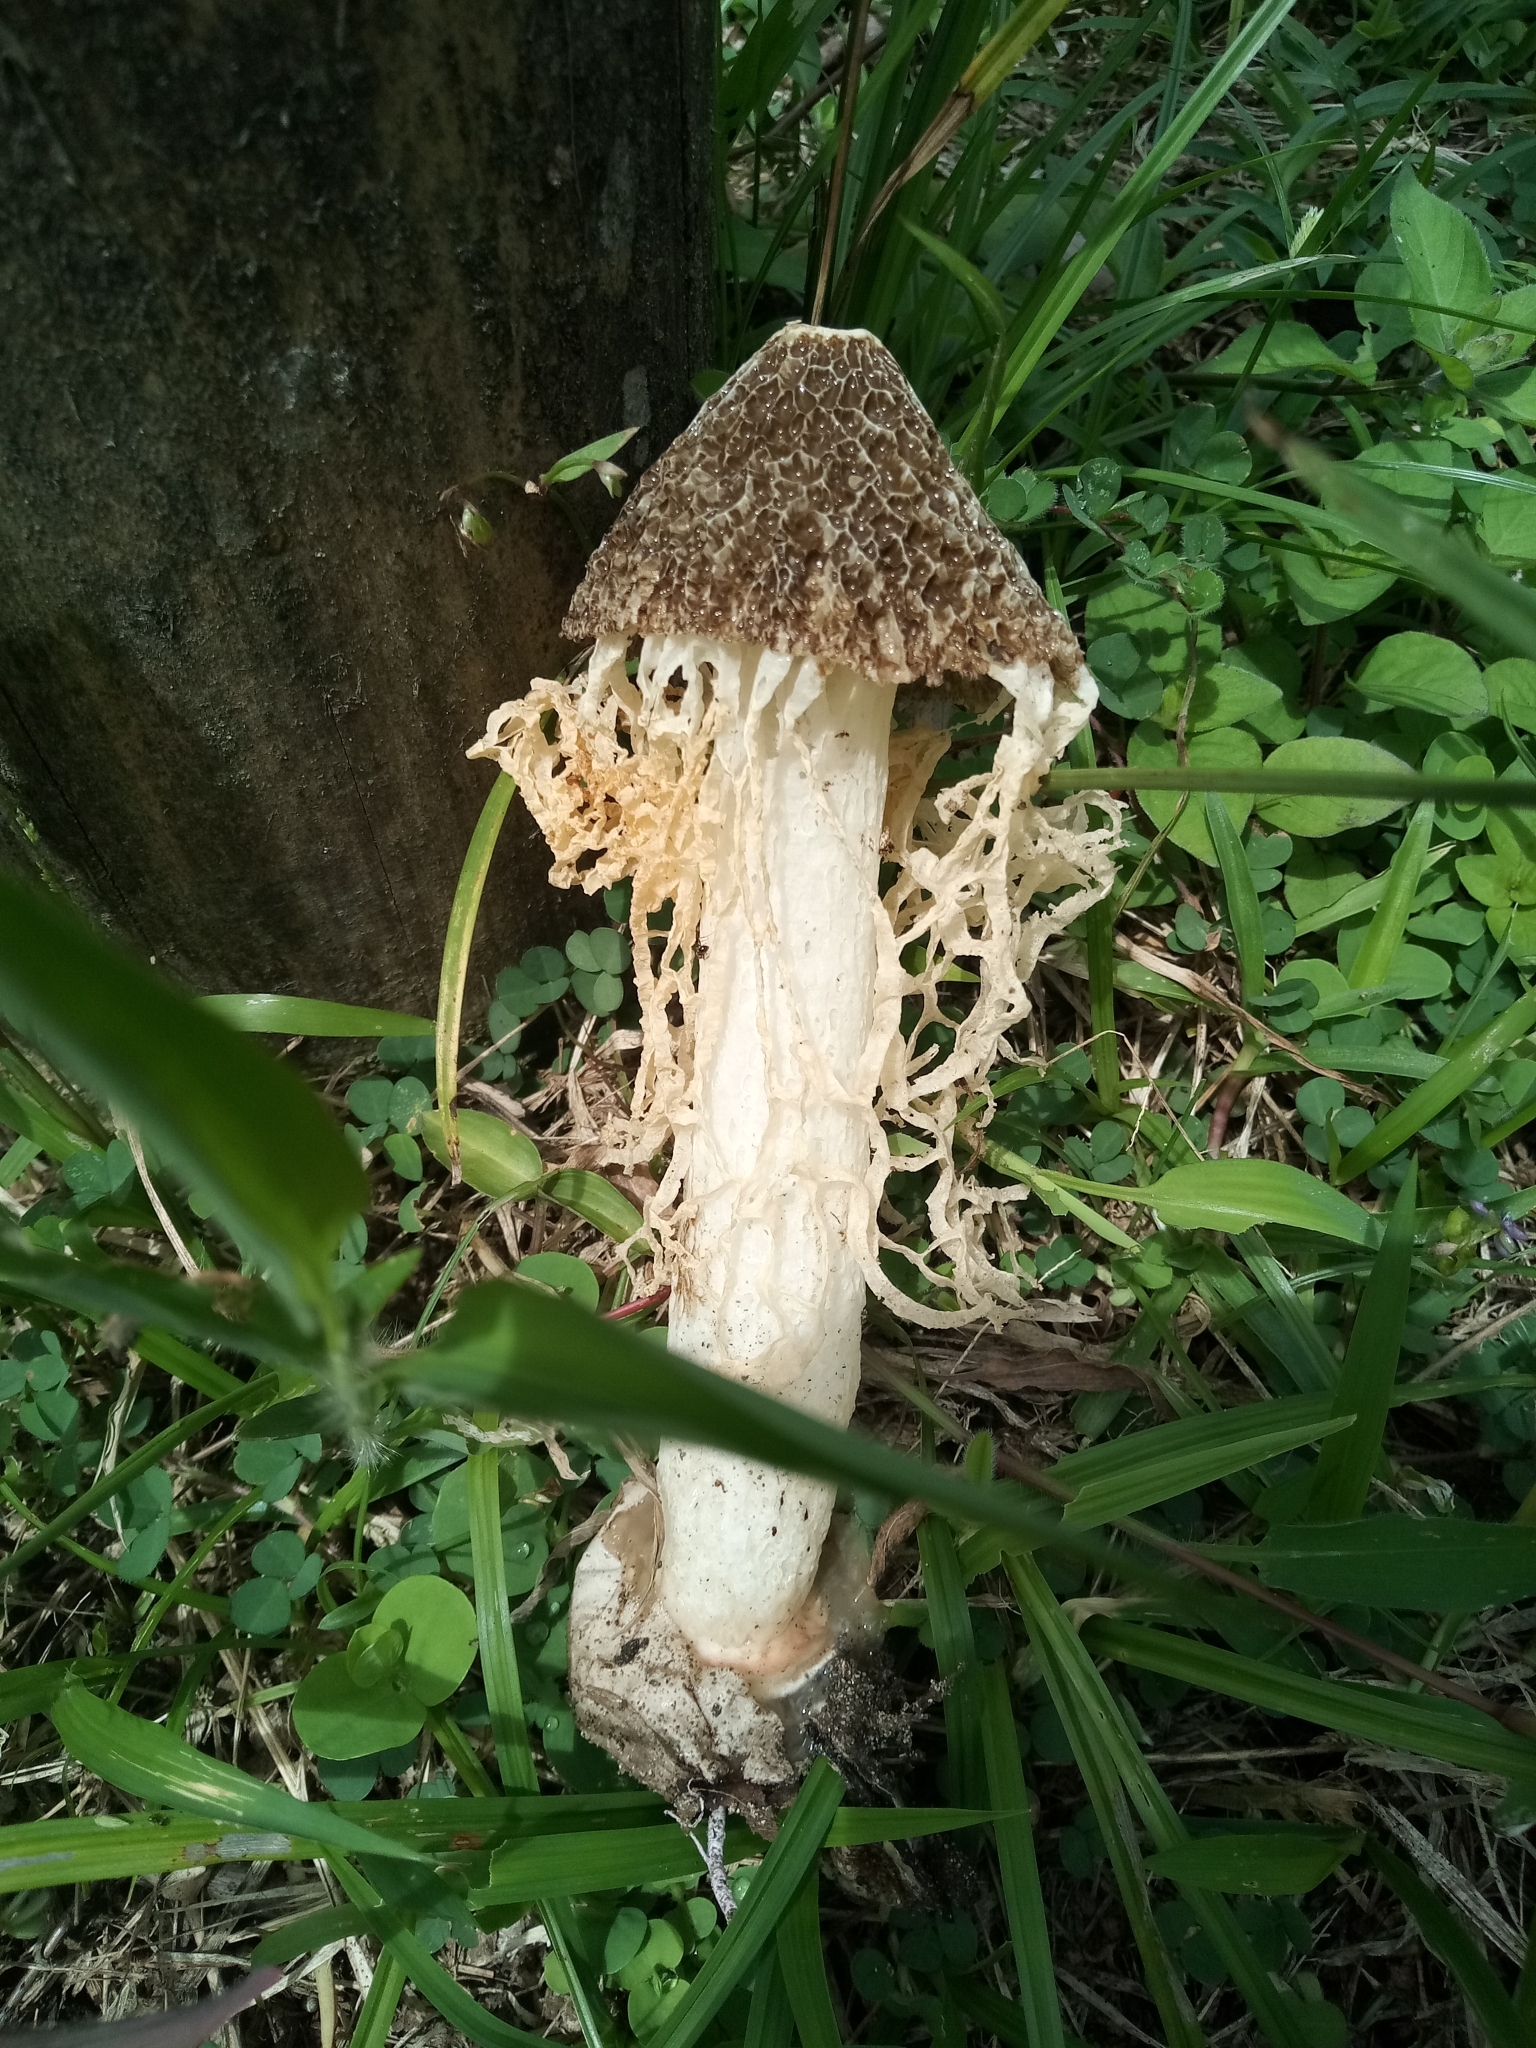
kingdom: Fungi
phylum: Basidiomycota
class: Agaricomycetes
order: Phallales
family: Phallaceae
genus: Phallus
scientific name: Phallus indusiatus
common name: Bridal veil stinkhorn
